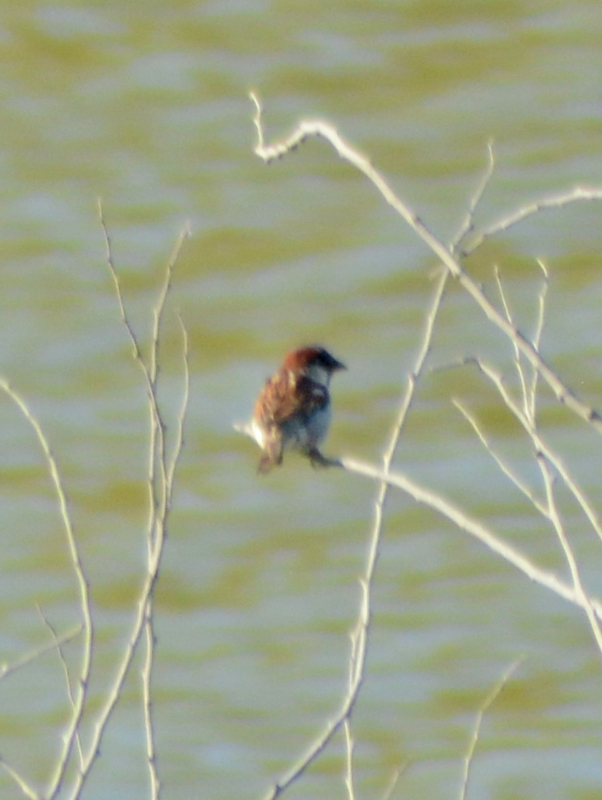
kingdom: Animalia
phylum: Chordata
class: Aves
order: Passeriformes
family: Passeridae
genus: Passer
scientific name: Passer domesticus
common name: House sparrow
